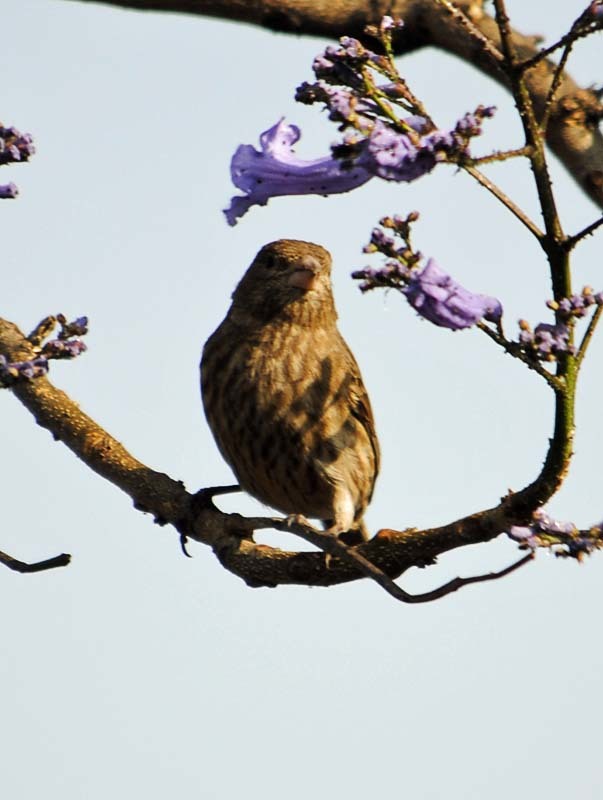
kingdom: Animalia
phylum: Chordata
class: Aves
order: Passeriformes
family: Fringillidae
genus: Haemorhous
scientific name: Haemorhous mexicanus
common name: House finch
